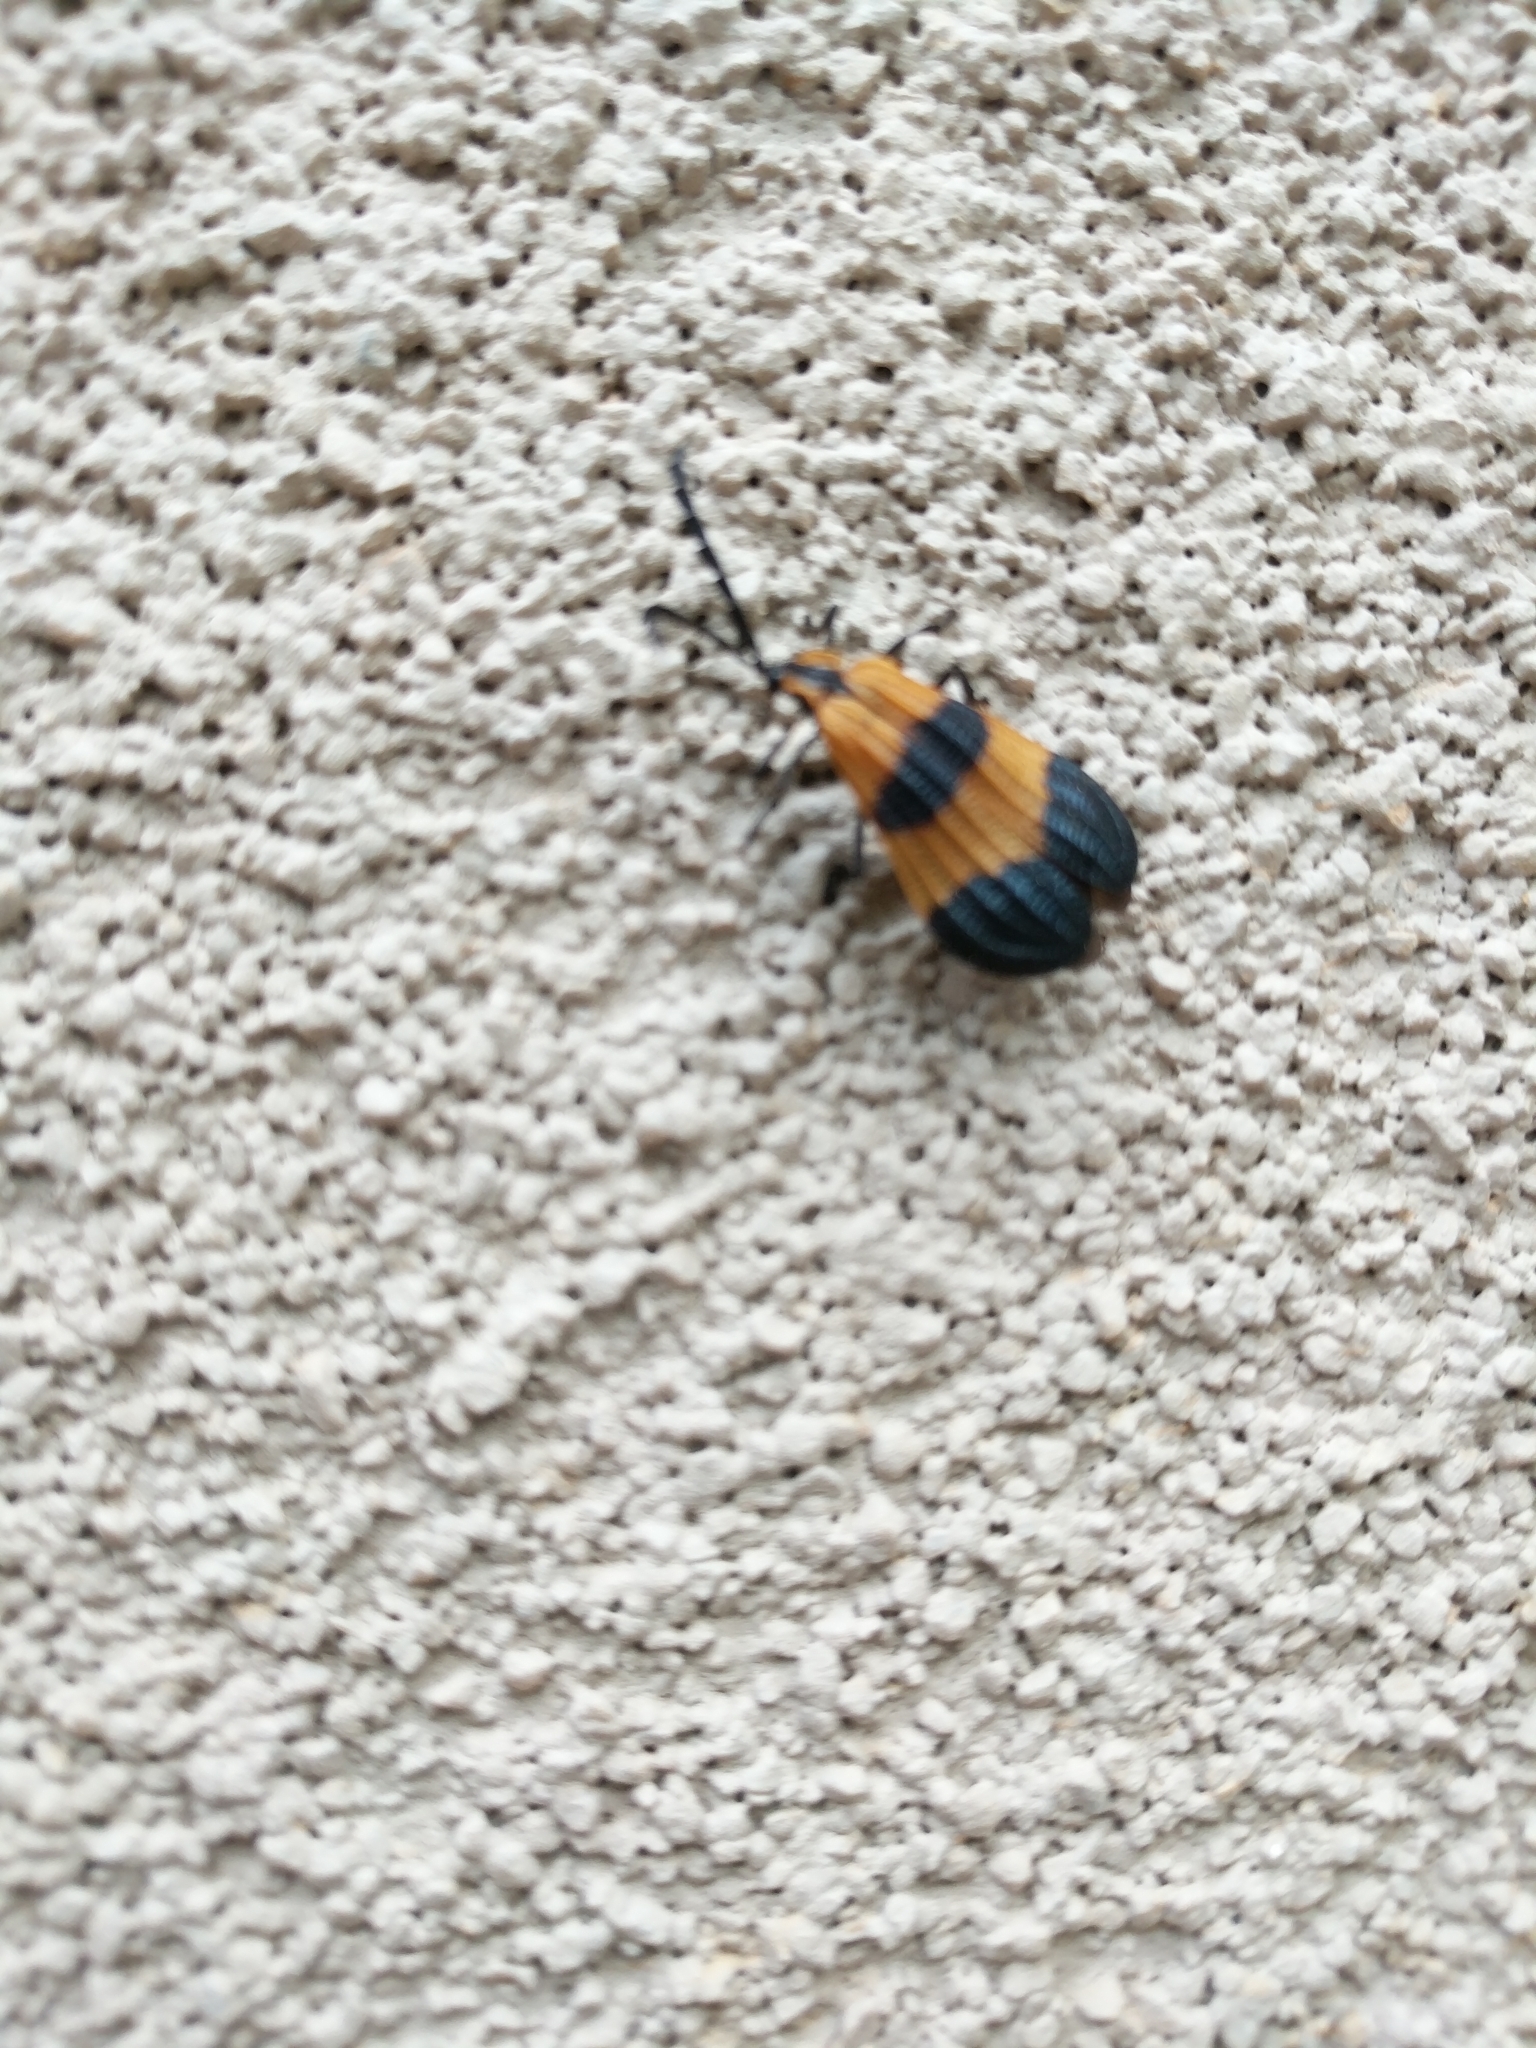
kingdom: Animalia
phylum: Arthropoda
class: Insecta
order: Coleoptera
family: Lycidae
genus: Calopteron
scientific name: Calopteron reticulatum
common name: Banded net-winged beetle
